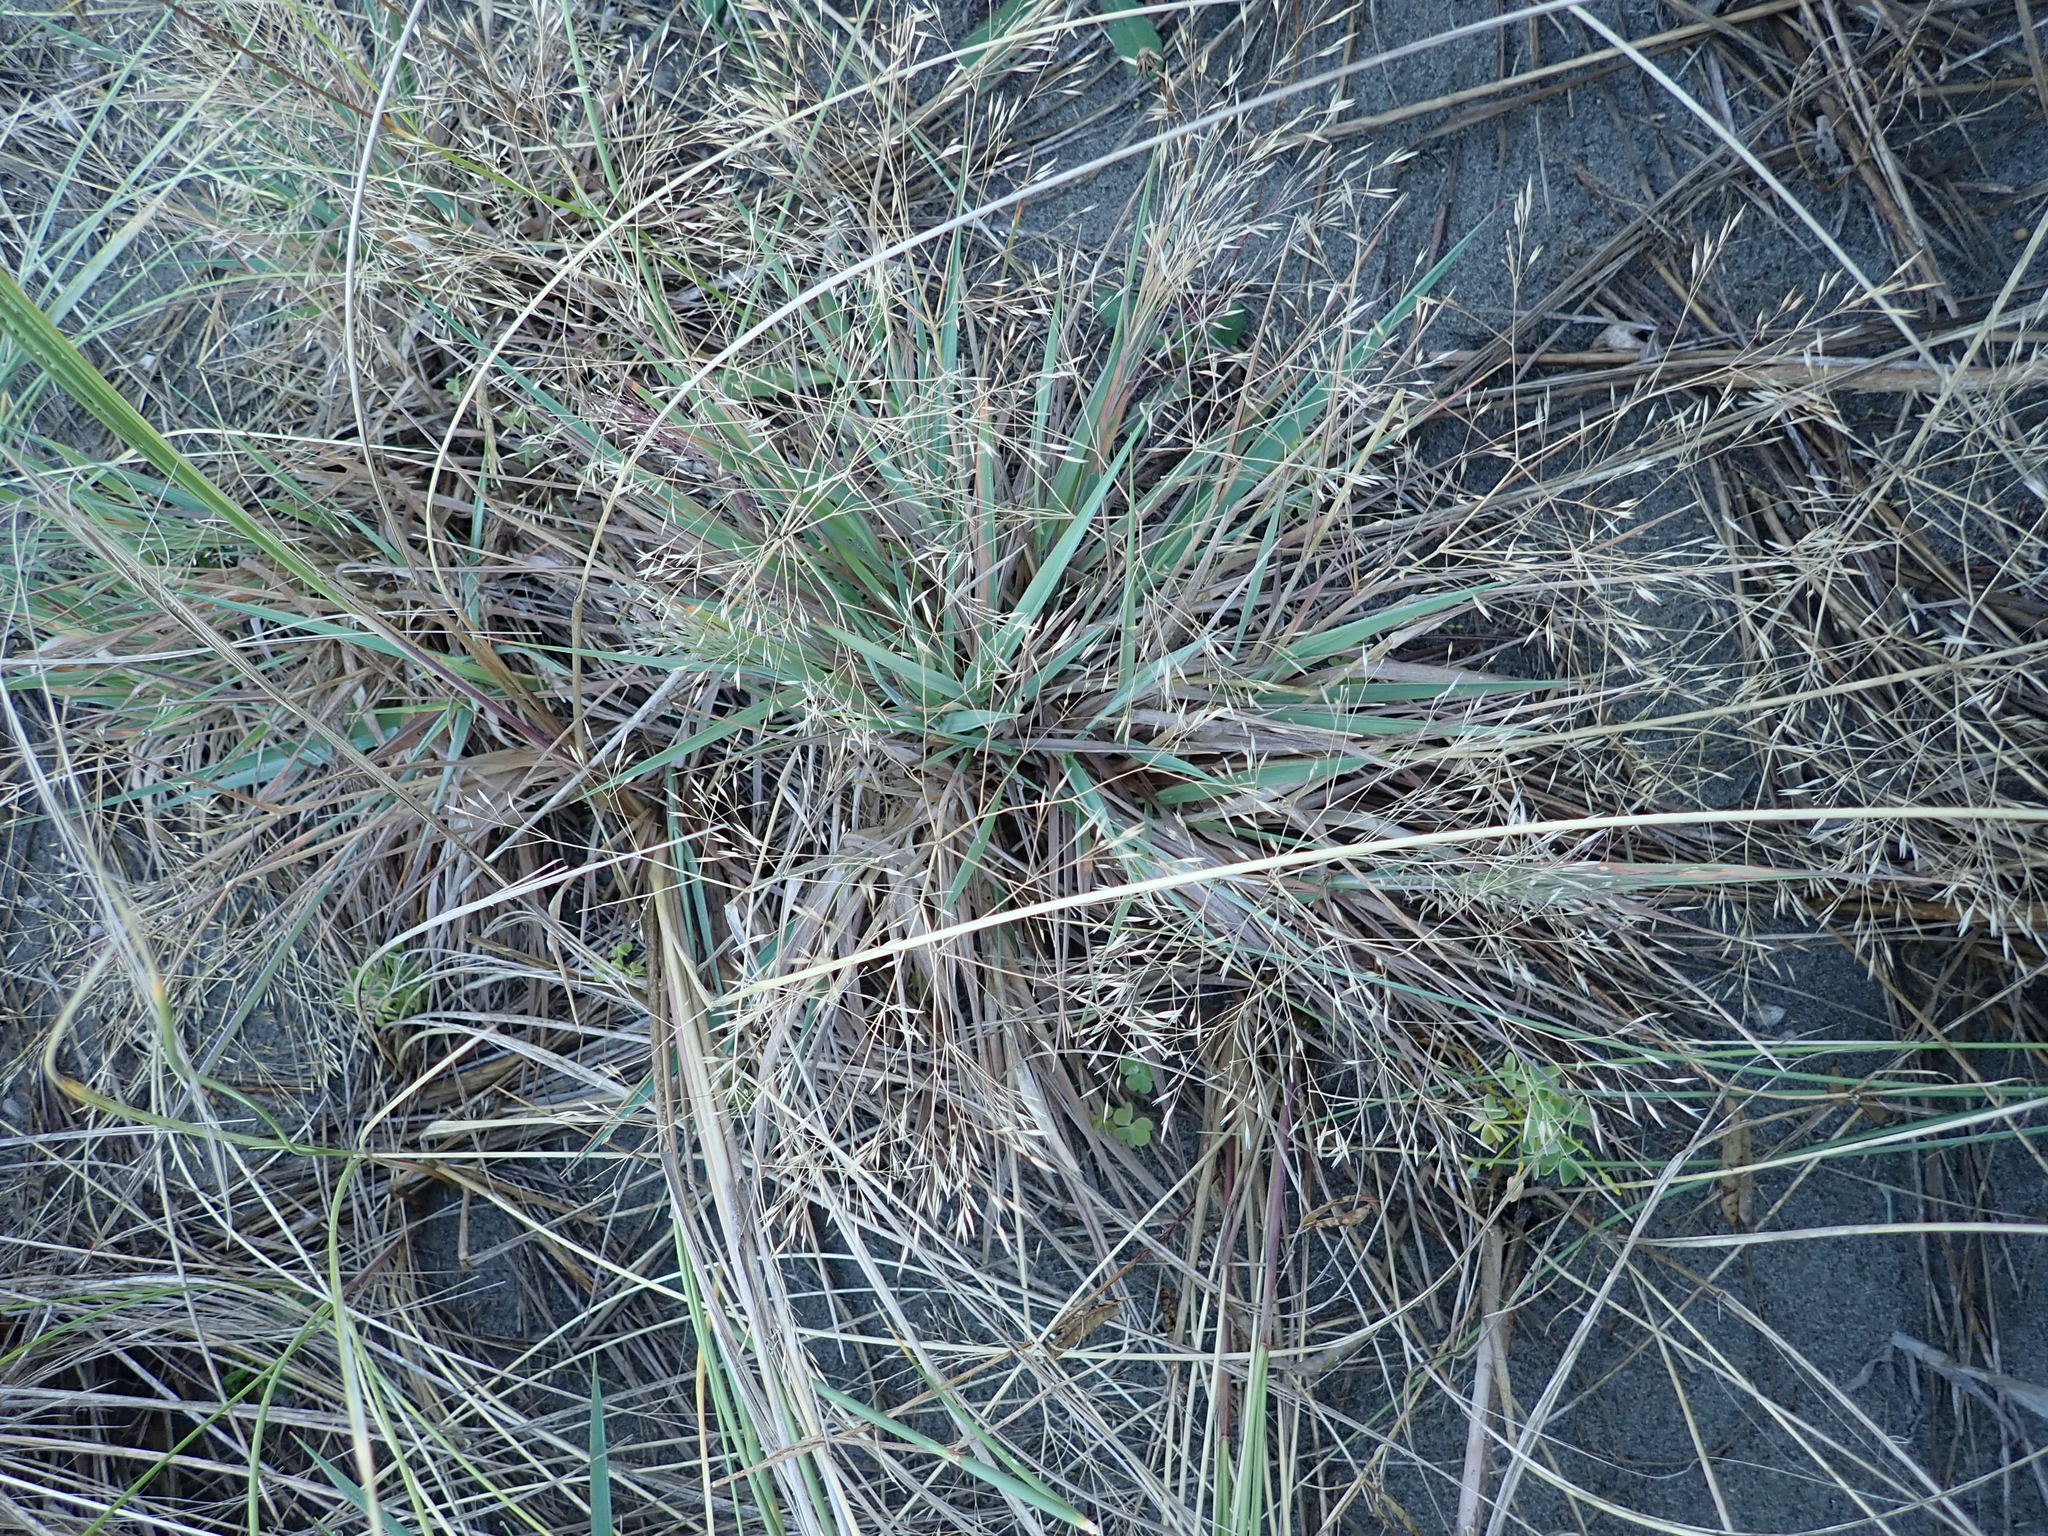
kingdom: Plantae
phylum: Tracheophyta
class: Liliopsida
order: Poales
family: Poaceae
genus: Lachnagrostis
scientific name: Lachnagrostis billardierei
